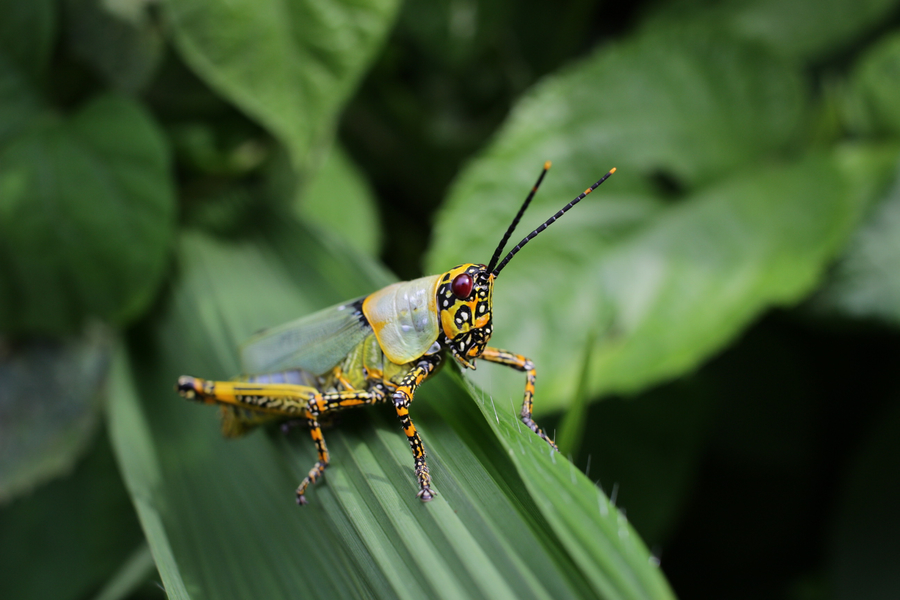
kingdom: Animalia
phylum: Arthropoda
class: Insecta
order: Orthoptera
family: Pyrgomorphidae
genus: Zonocerus
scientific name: Zonocerus variegatus
